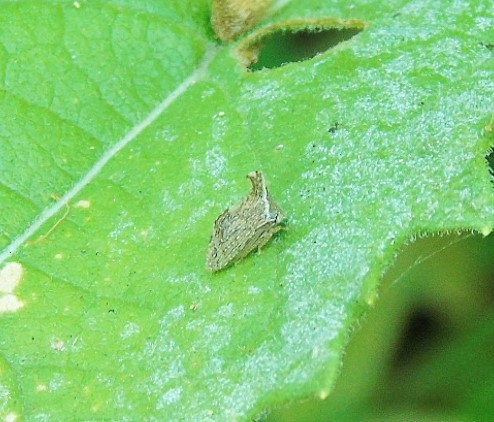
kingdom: Animalia
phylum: Arthropoda
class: Insecta
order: Hemiptera
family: Membracidae
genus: Entylia
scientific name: Entylia
